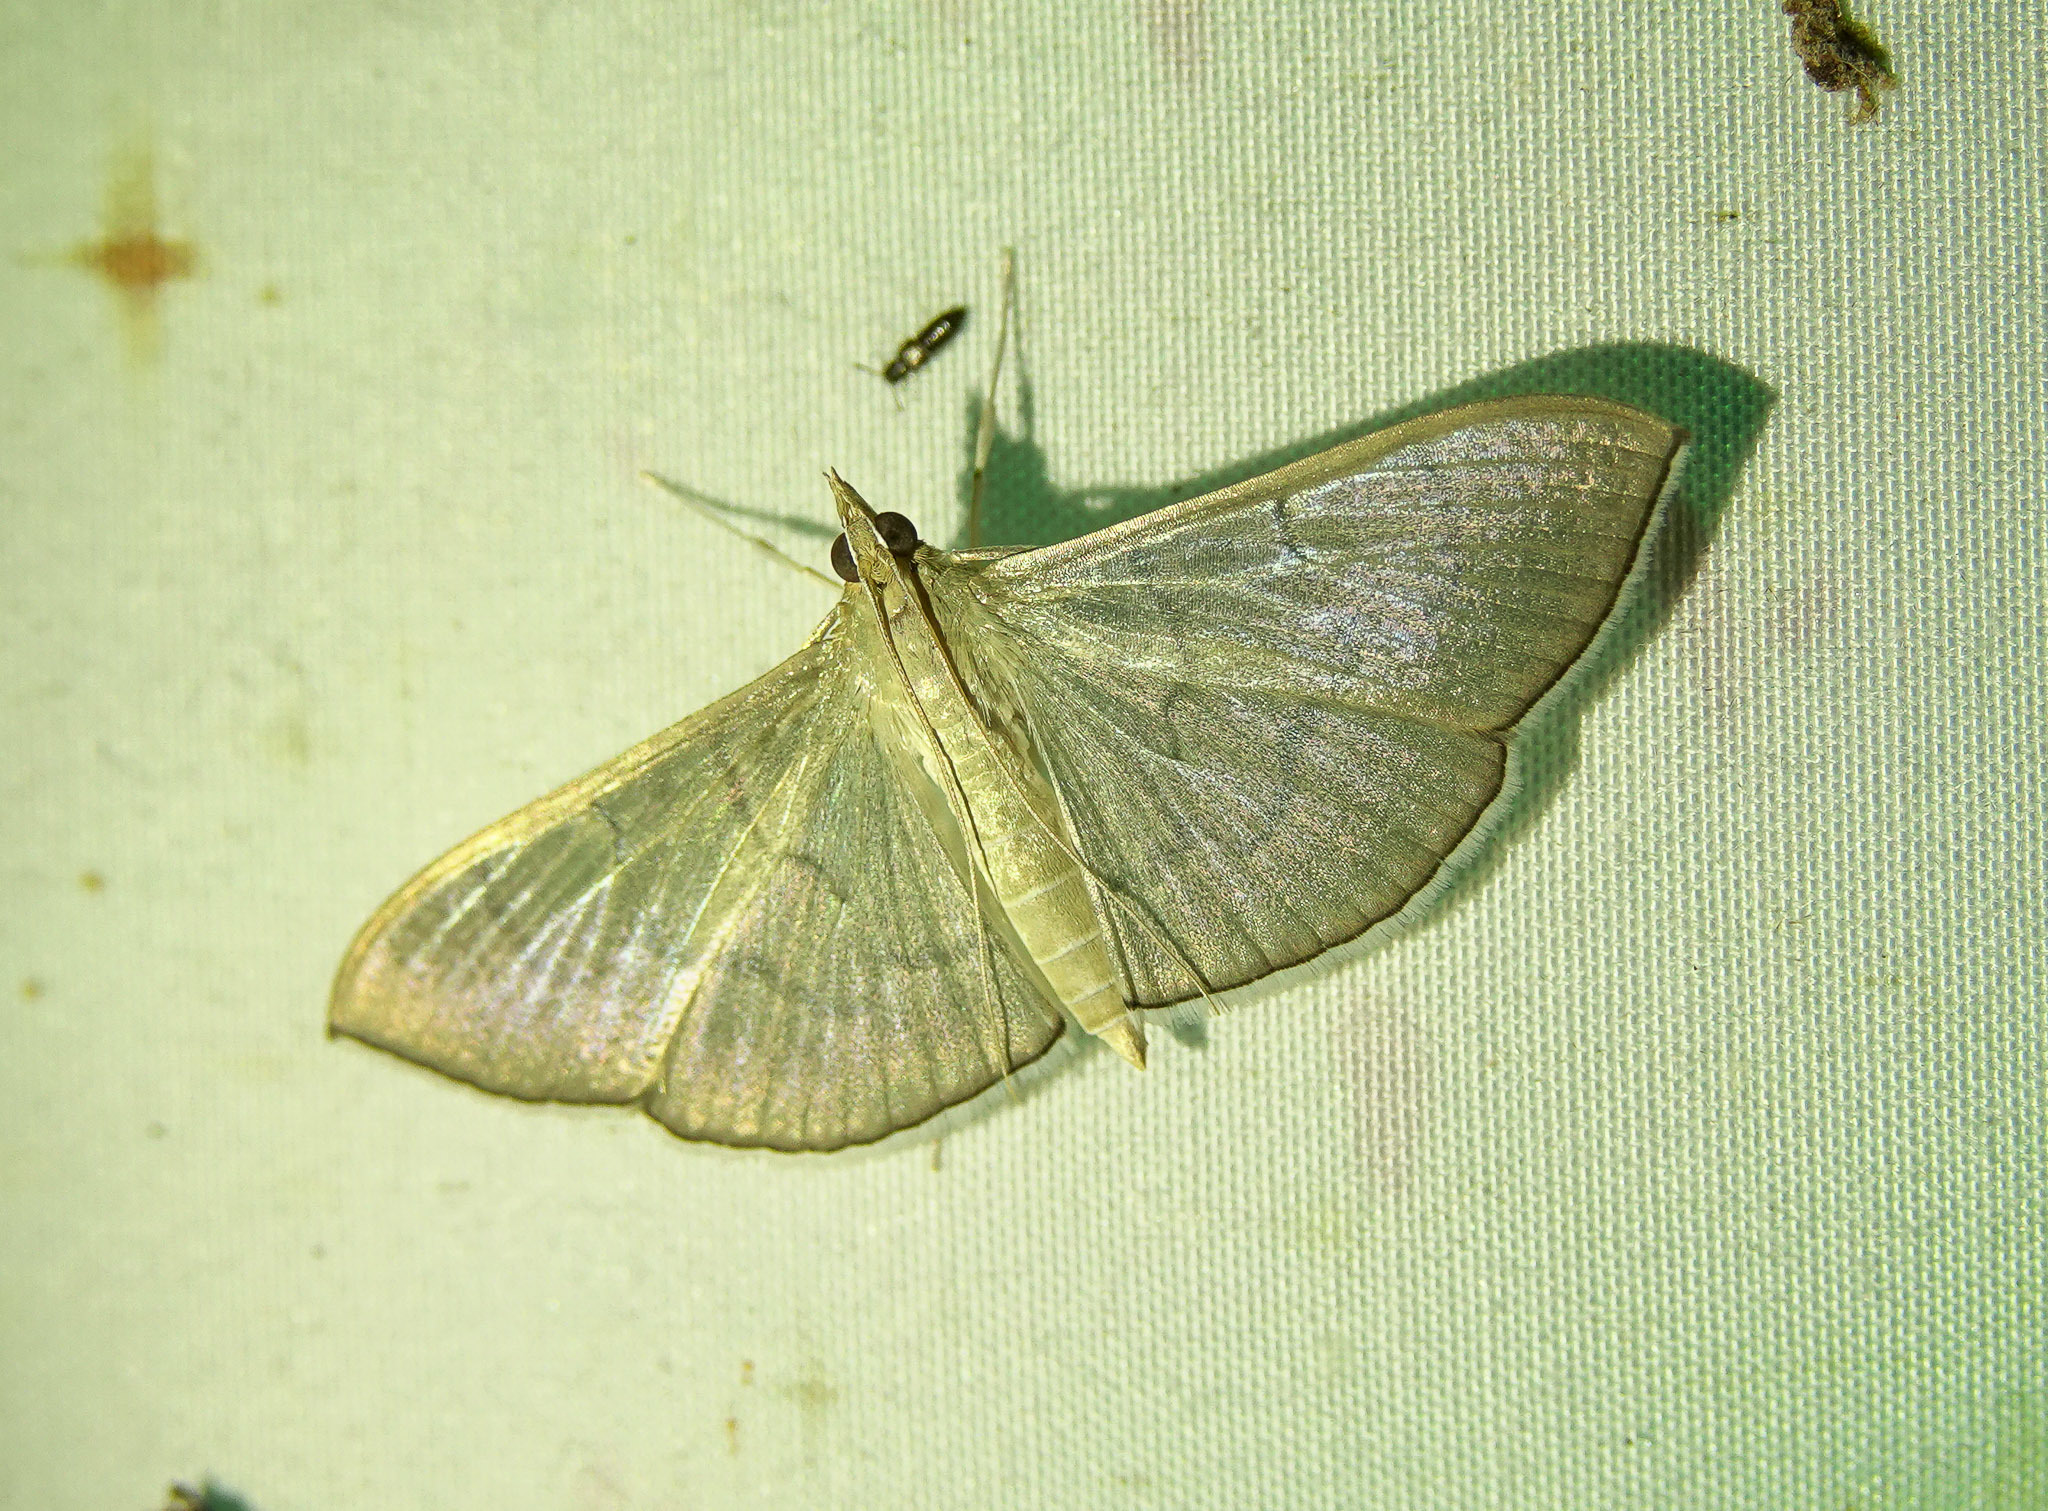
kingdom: Animalia
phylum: Arthropoda
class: Insecta
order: Lepidoptera
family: Crambidae
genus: Lamprophaia
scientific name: Lamprophaia ablactalis
